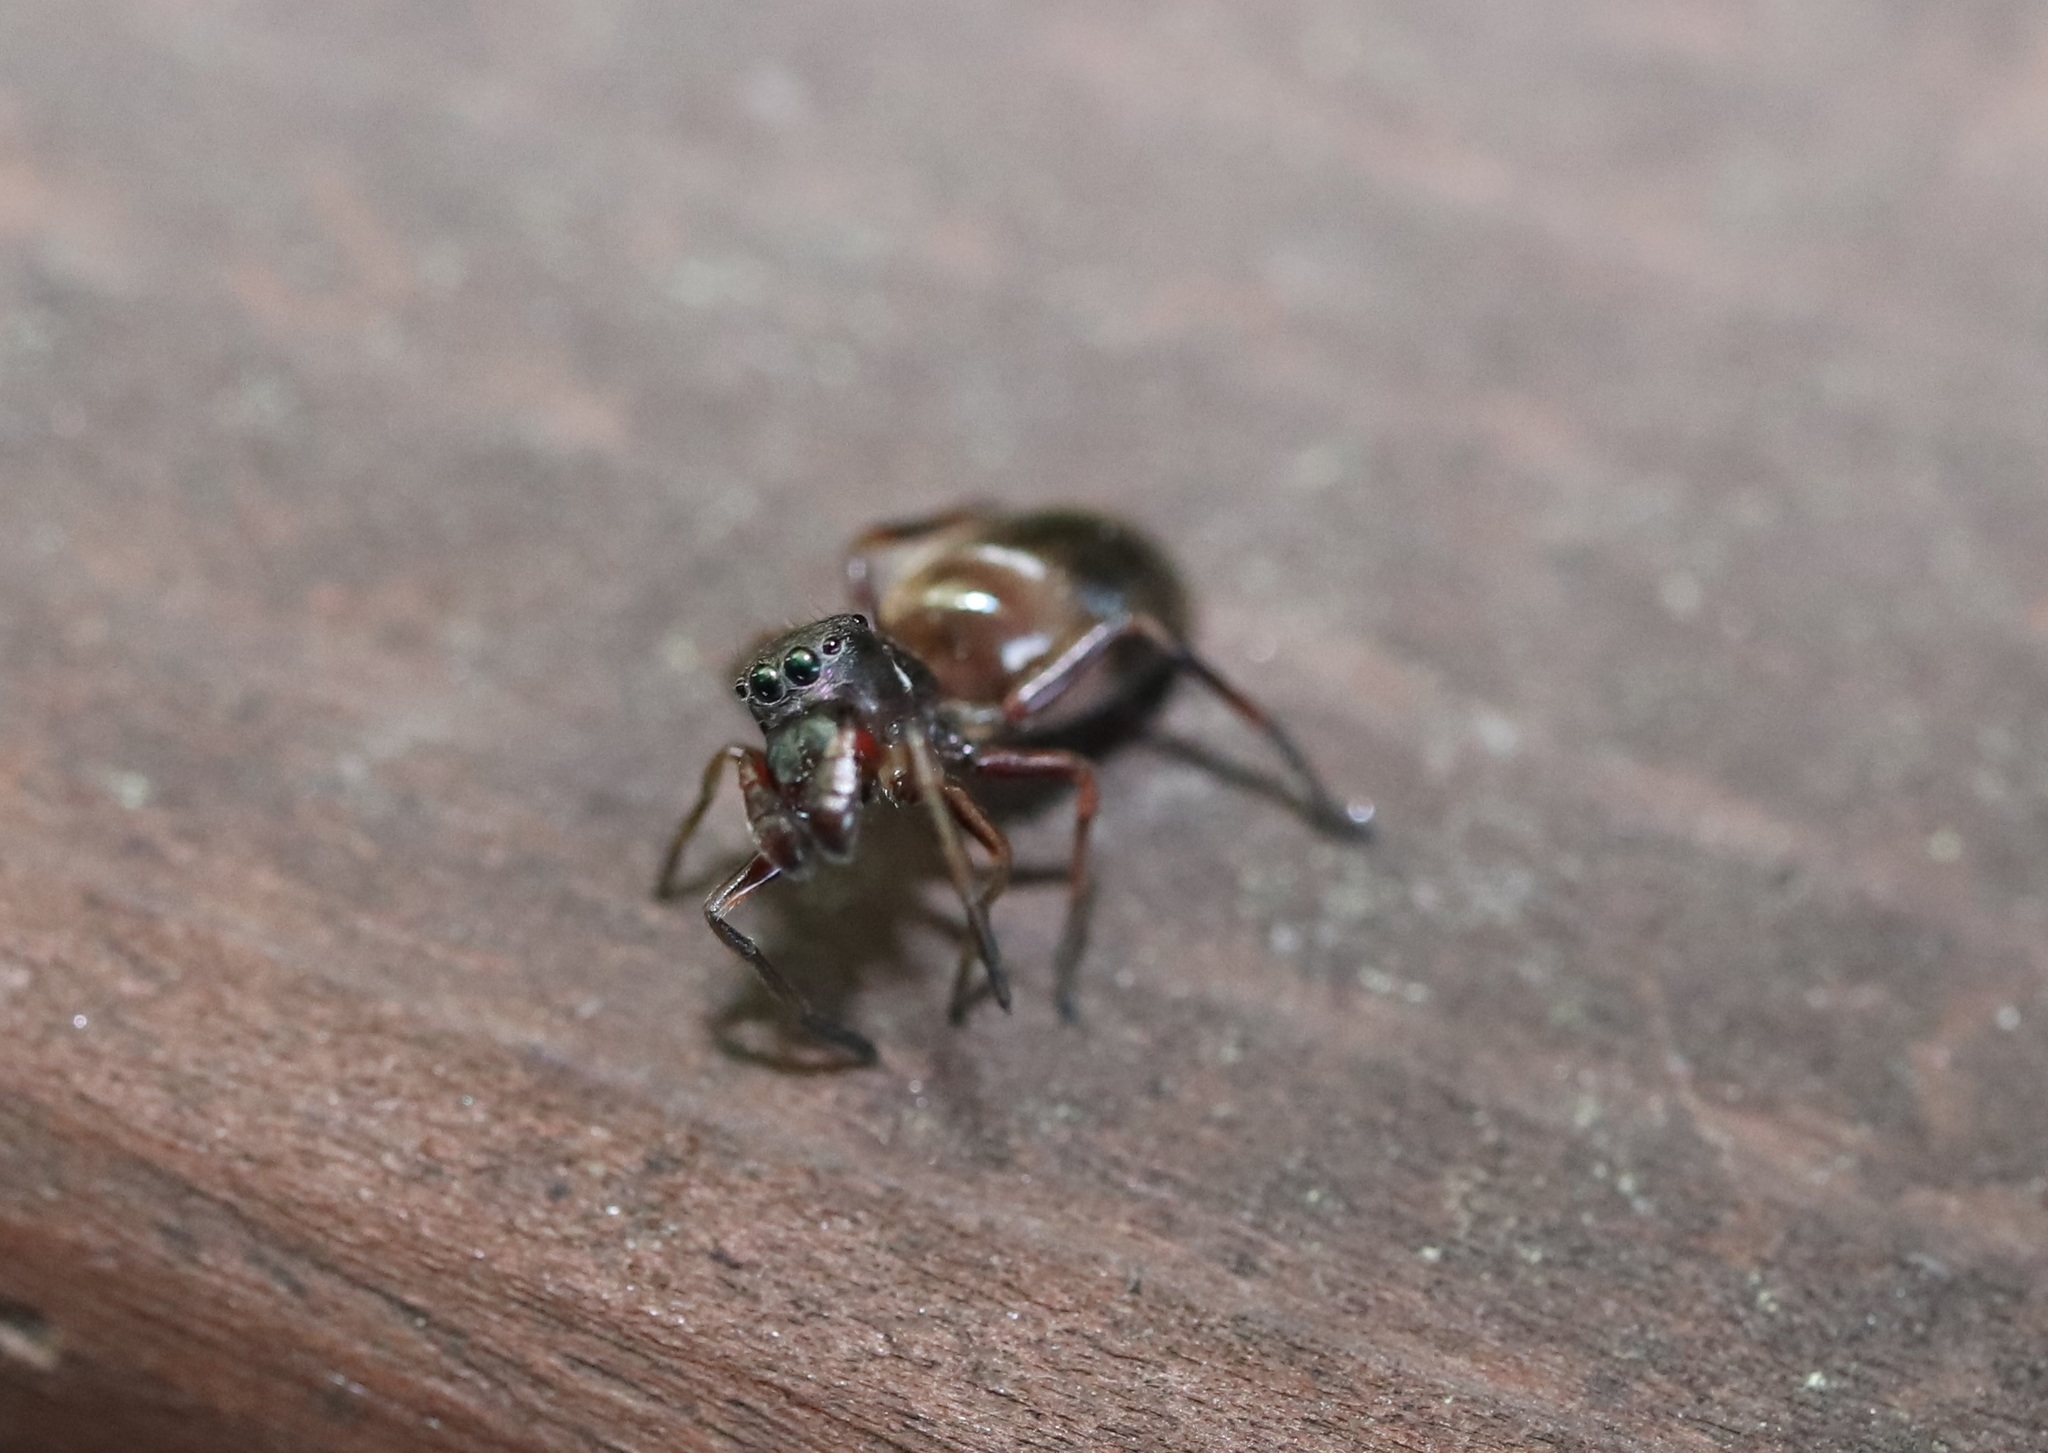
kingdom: Animalia
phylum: Arthropoda
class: Arachnida
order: Araneae
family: Salticidae
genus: Myrmarachne
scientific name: Myrmarachne japonica
